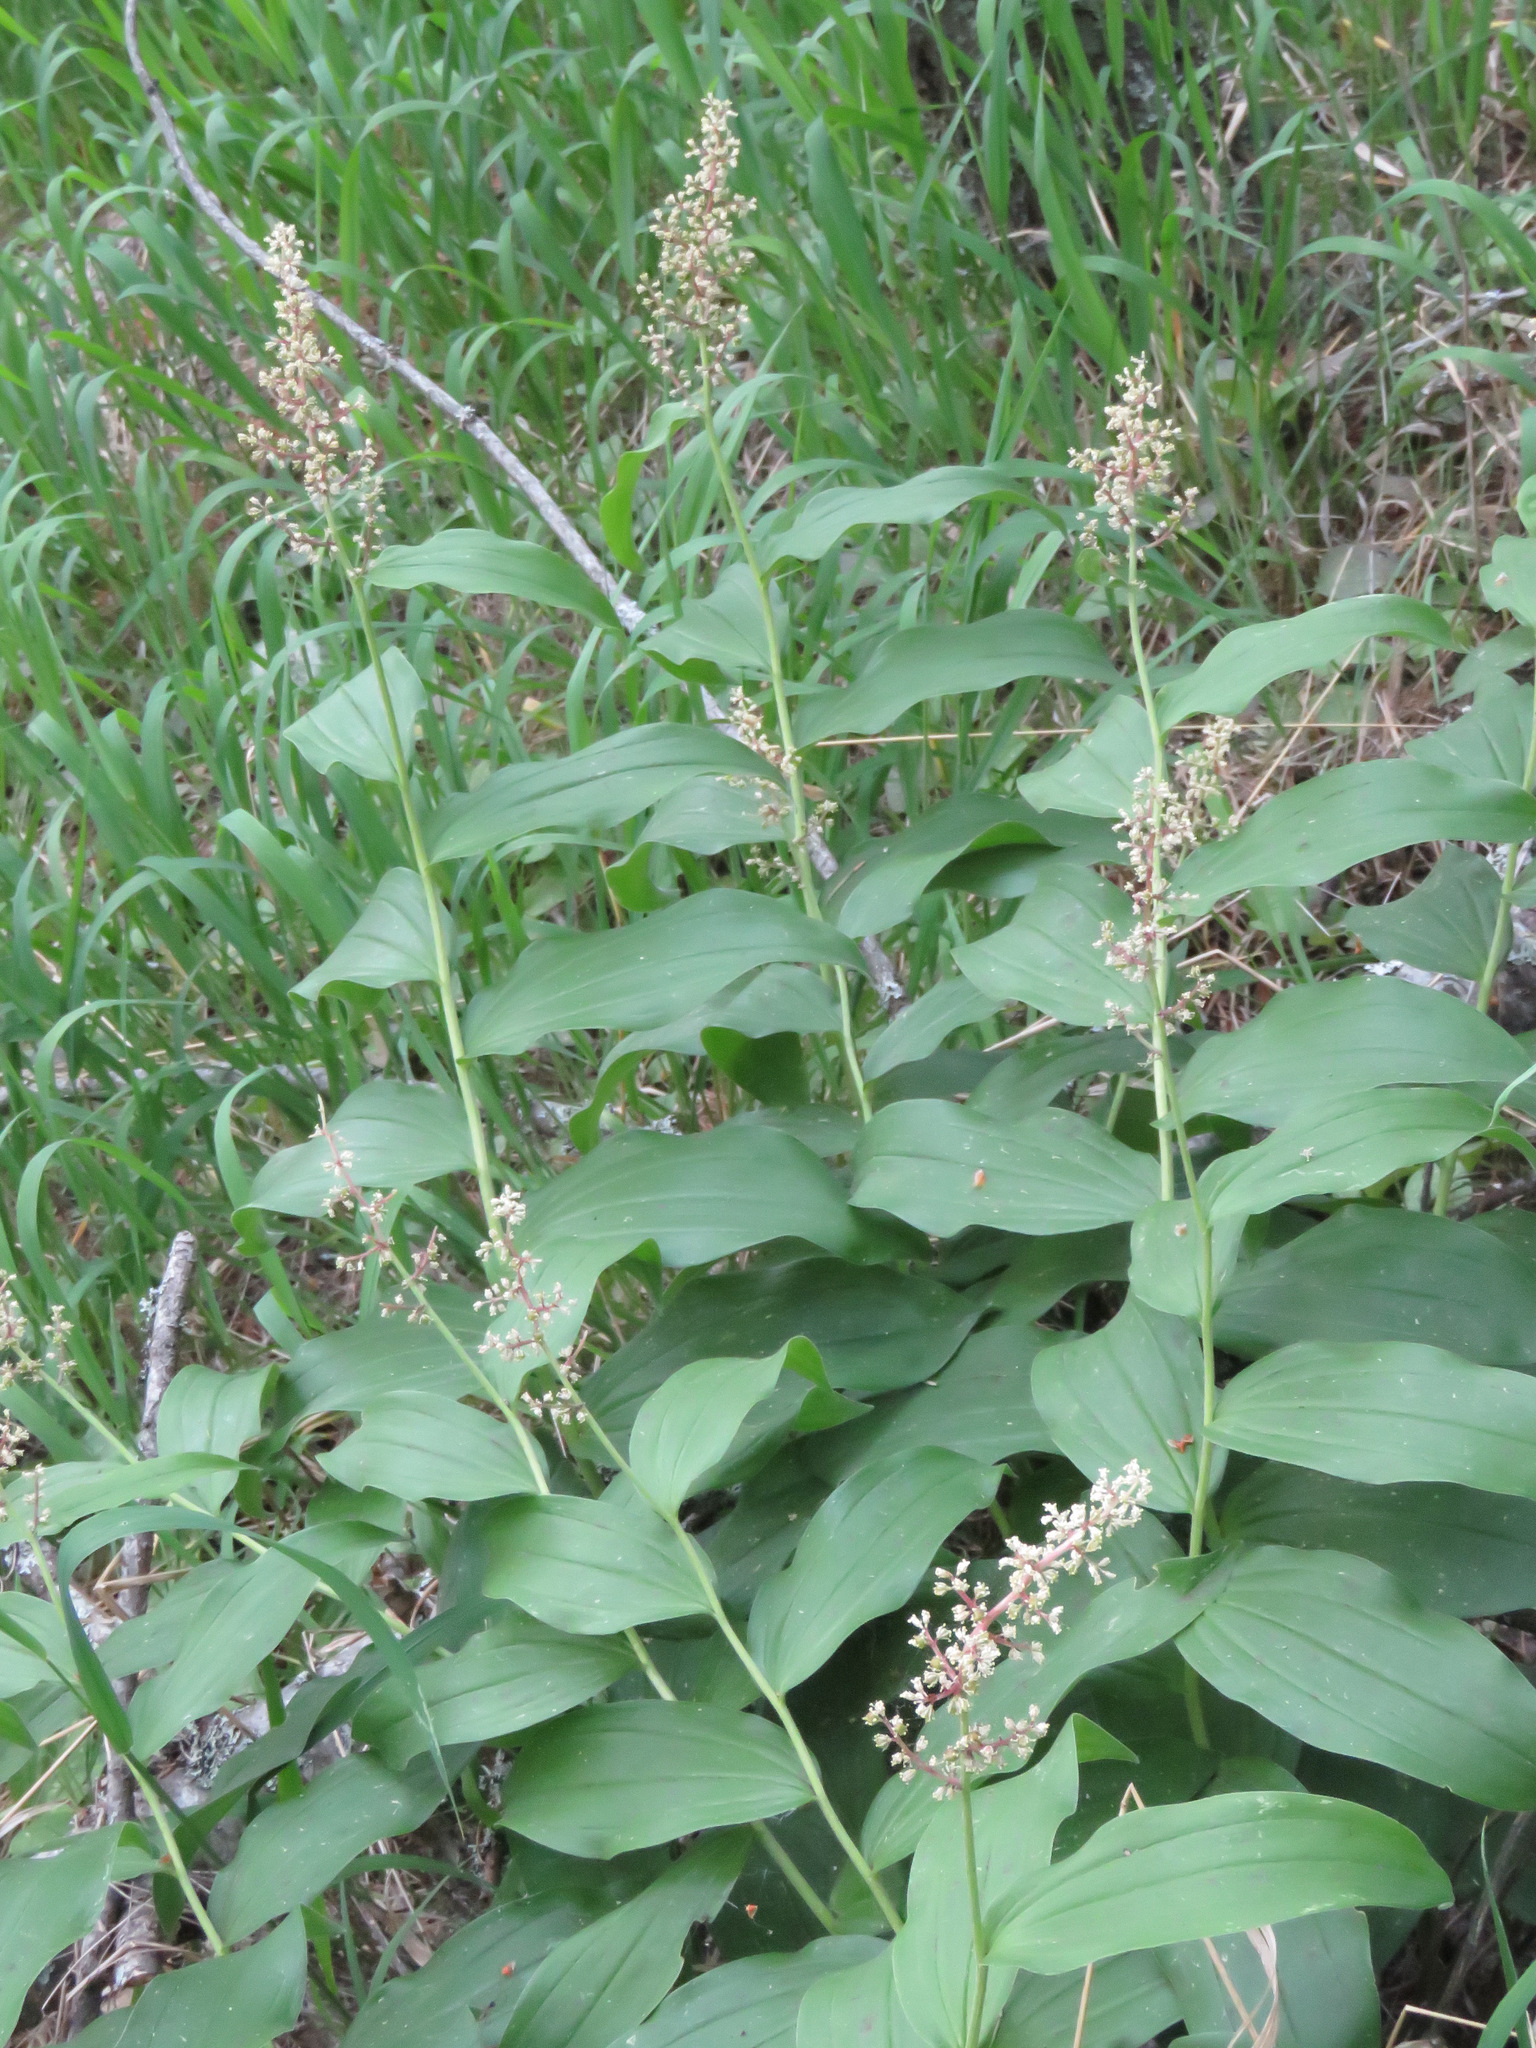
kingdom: Plantae
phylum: Tracheophyta
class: Liliopsida
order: Asparagales
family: Asparagaceae
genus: Maianthemum
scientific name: Maianthemum racemosum
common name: False spikenard
